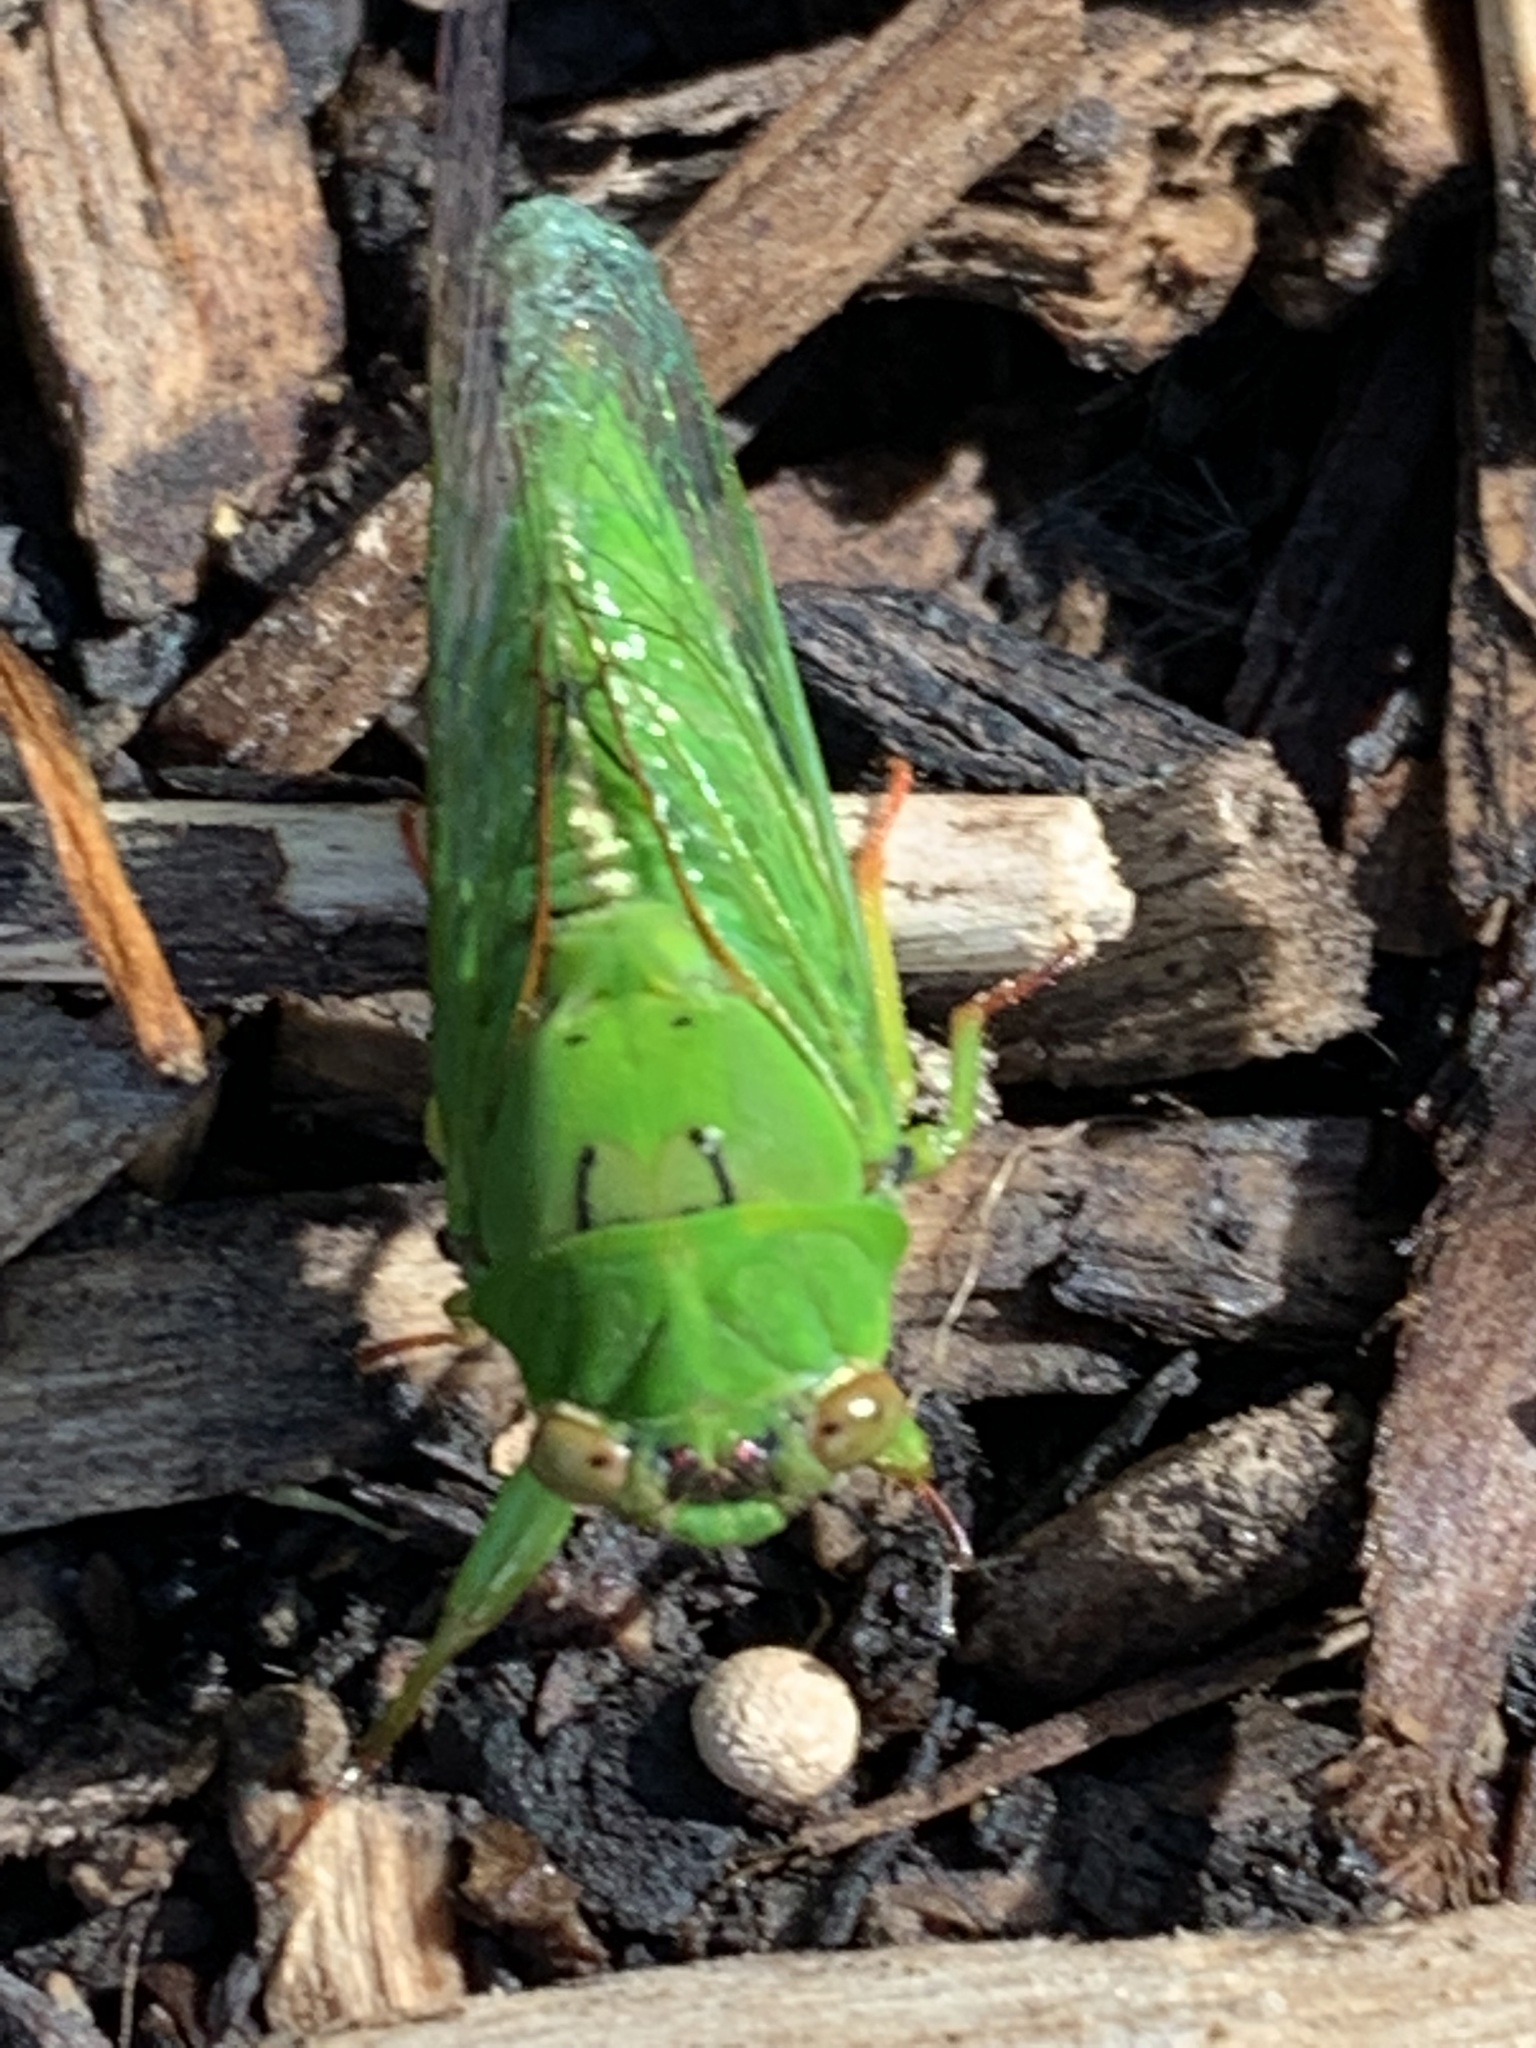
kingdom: Animalia
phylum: Arthropoda
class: Insecta
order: Hemiptera
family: Cicadidae
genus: Kikihia
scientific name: Kikihia ochrina
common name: April green cicada
